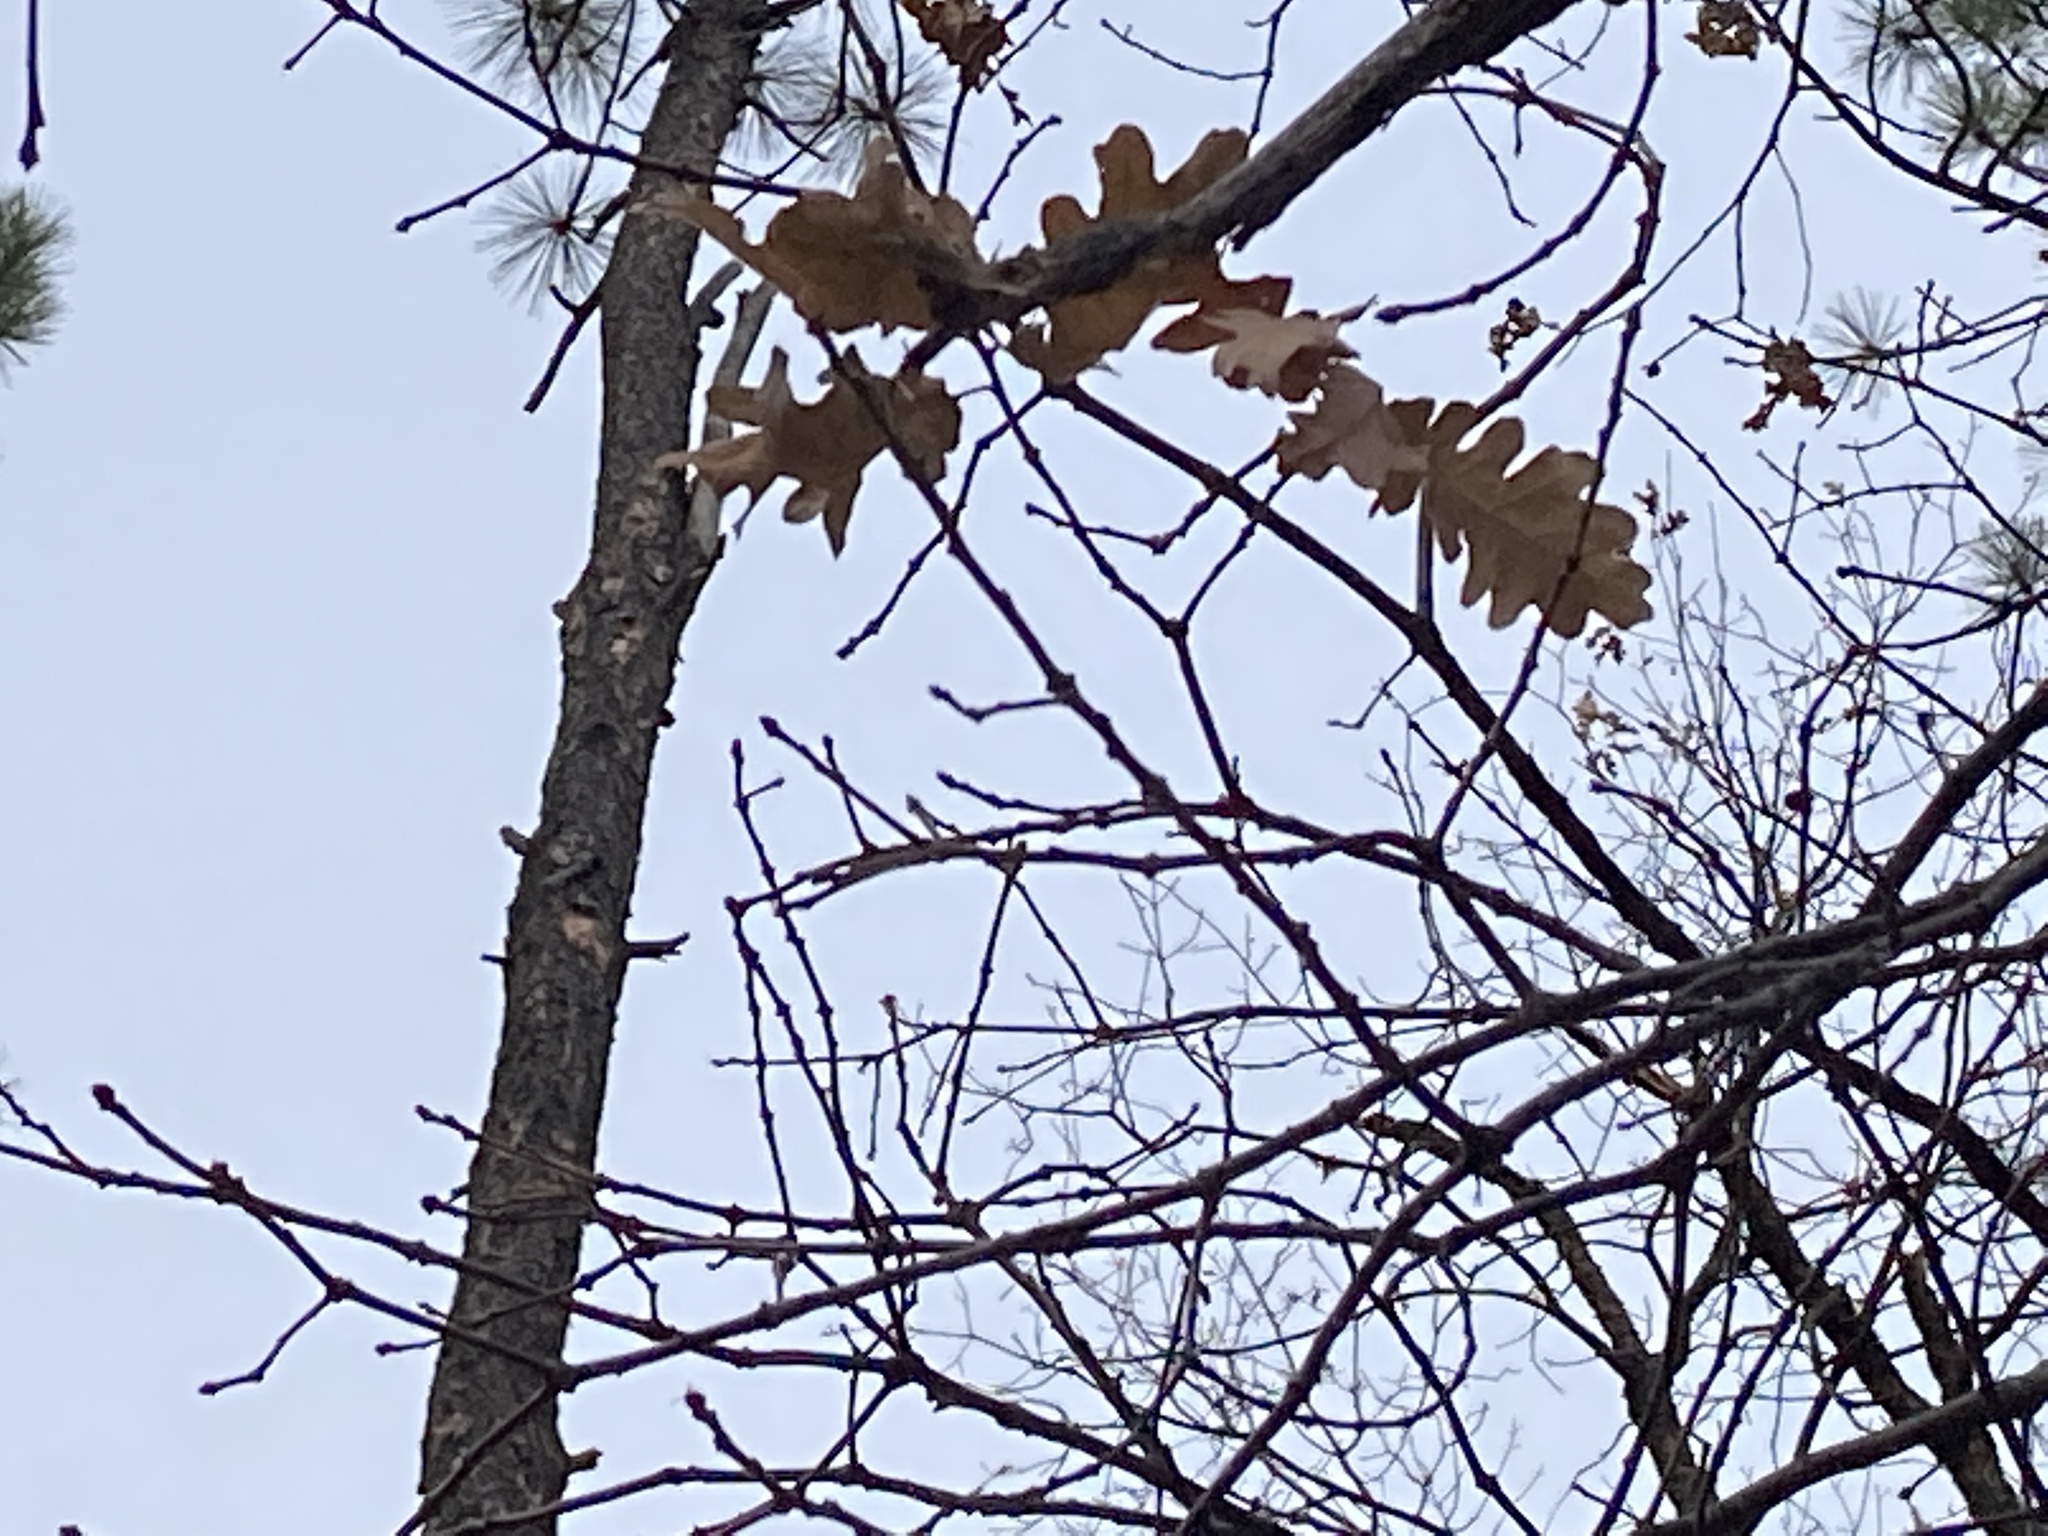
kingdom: Plantae
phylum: Tracheophyta
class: Magnoliopsida
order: Fagales
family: Fagaceae
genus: Quercus
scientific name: Quercus gambelii
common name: Gambel oak
